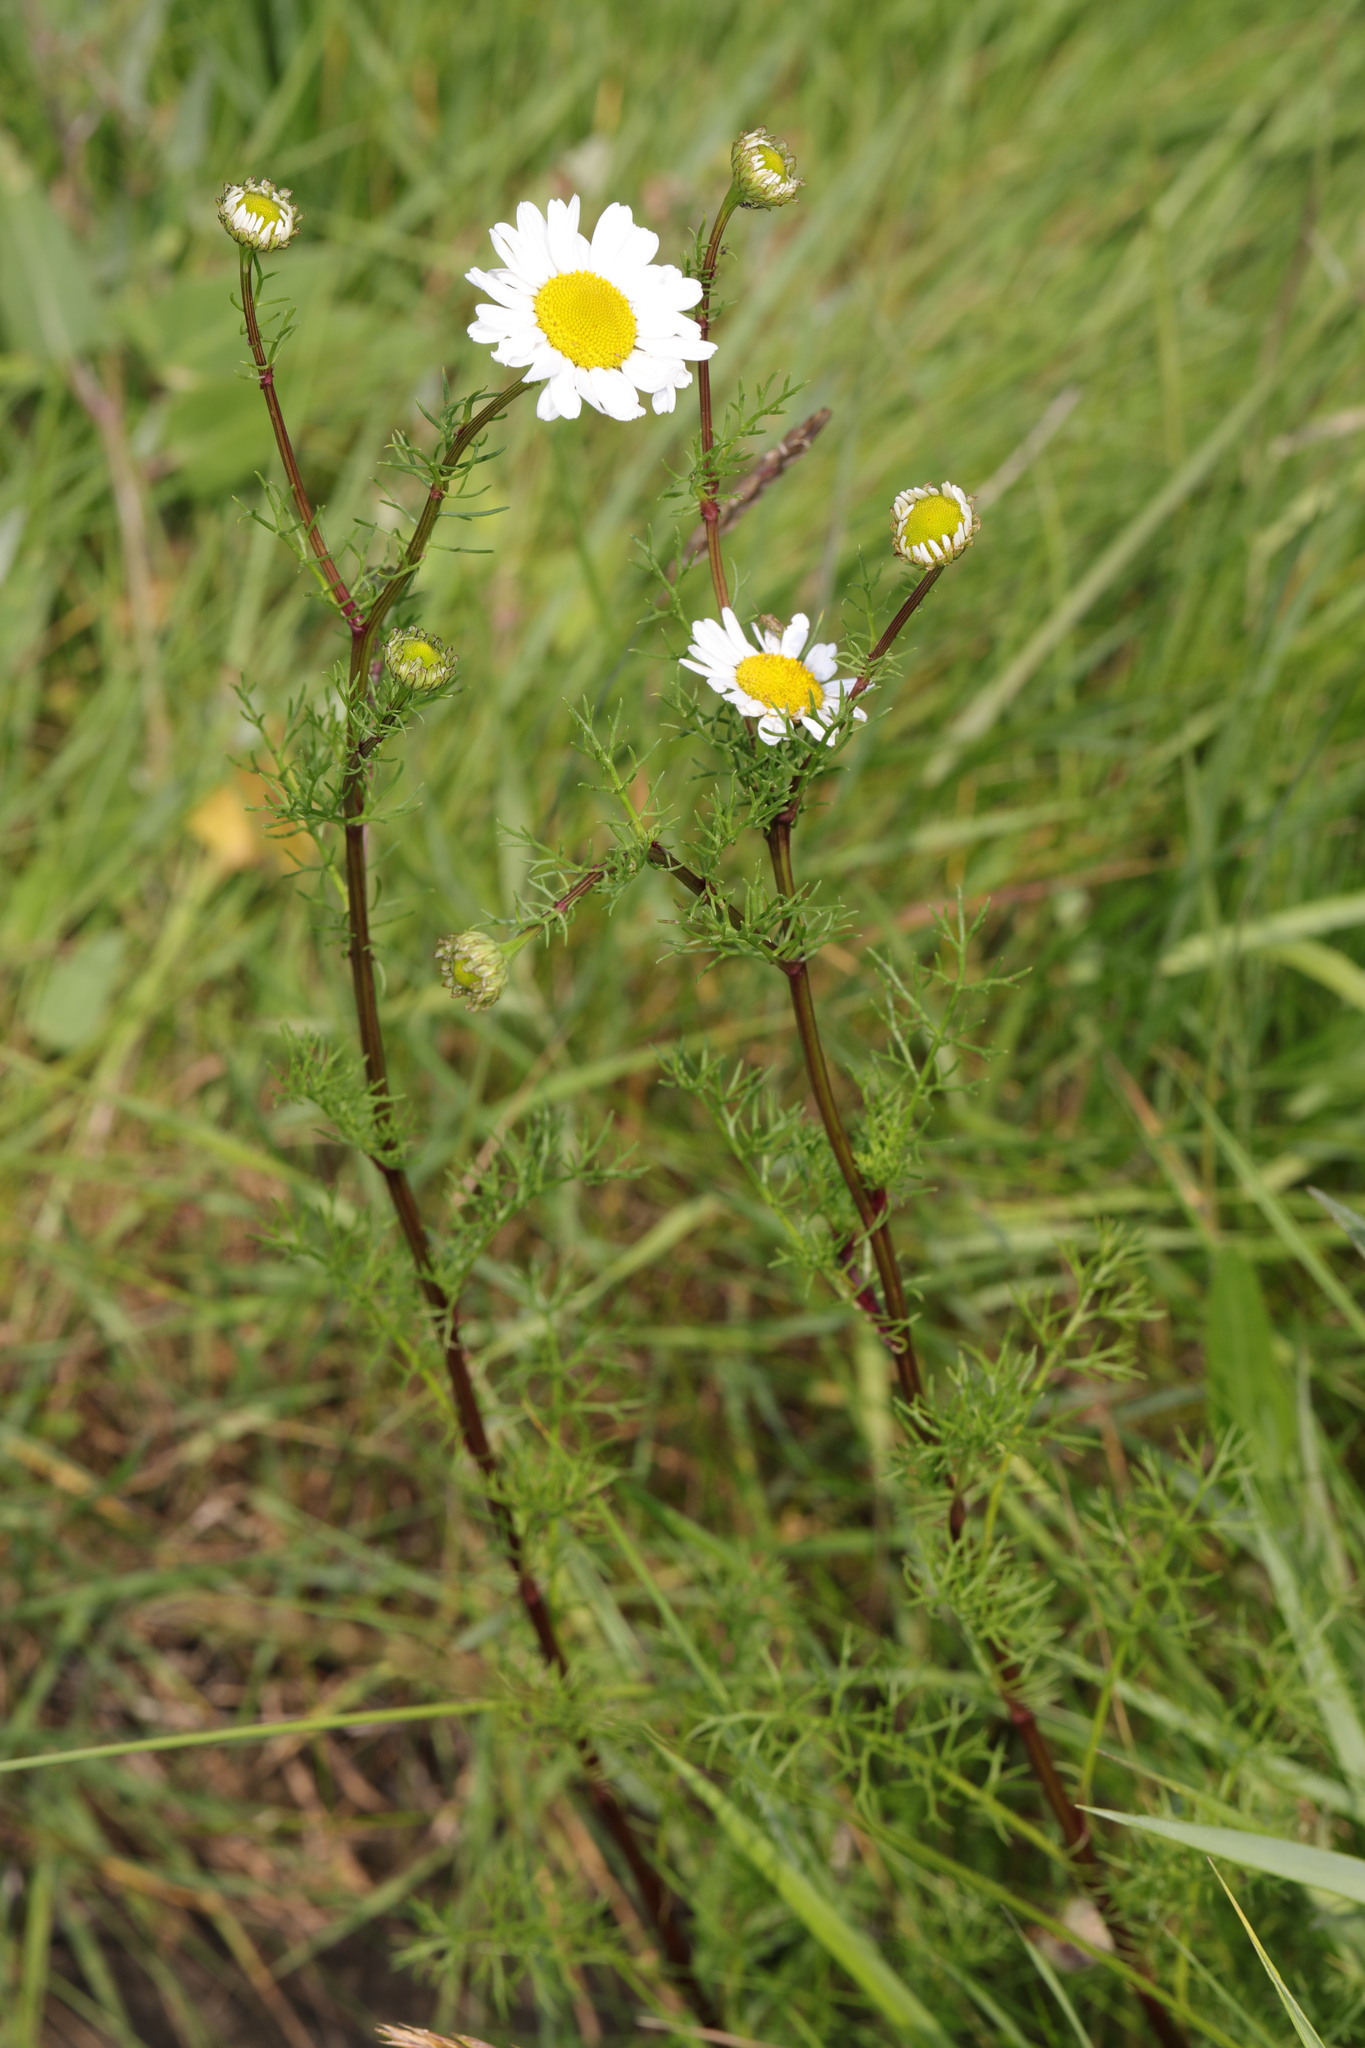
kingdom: Plantae
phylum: Tracheophyta
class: Magnoliopsida
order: Asterales
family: Asteraceae
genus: Tripleurospermum
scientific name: Tripleurospermum inodorum
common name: Scentless mayweed
